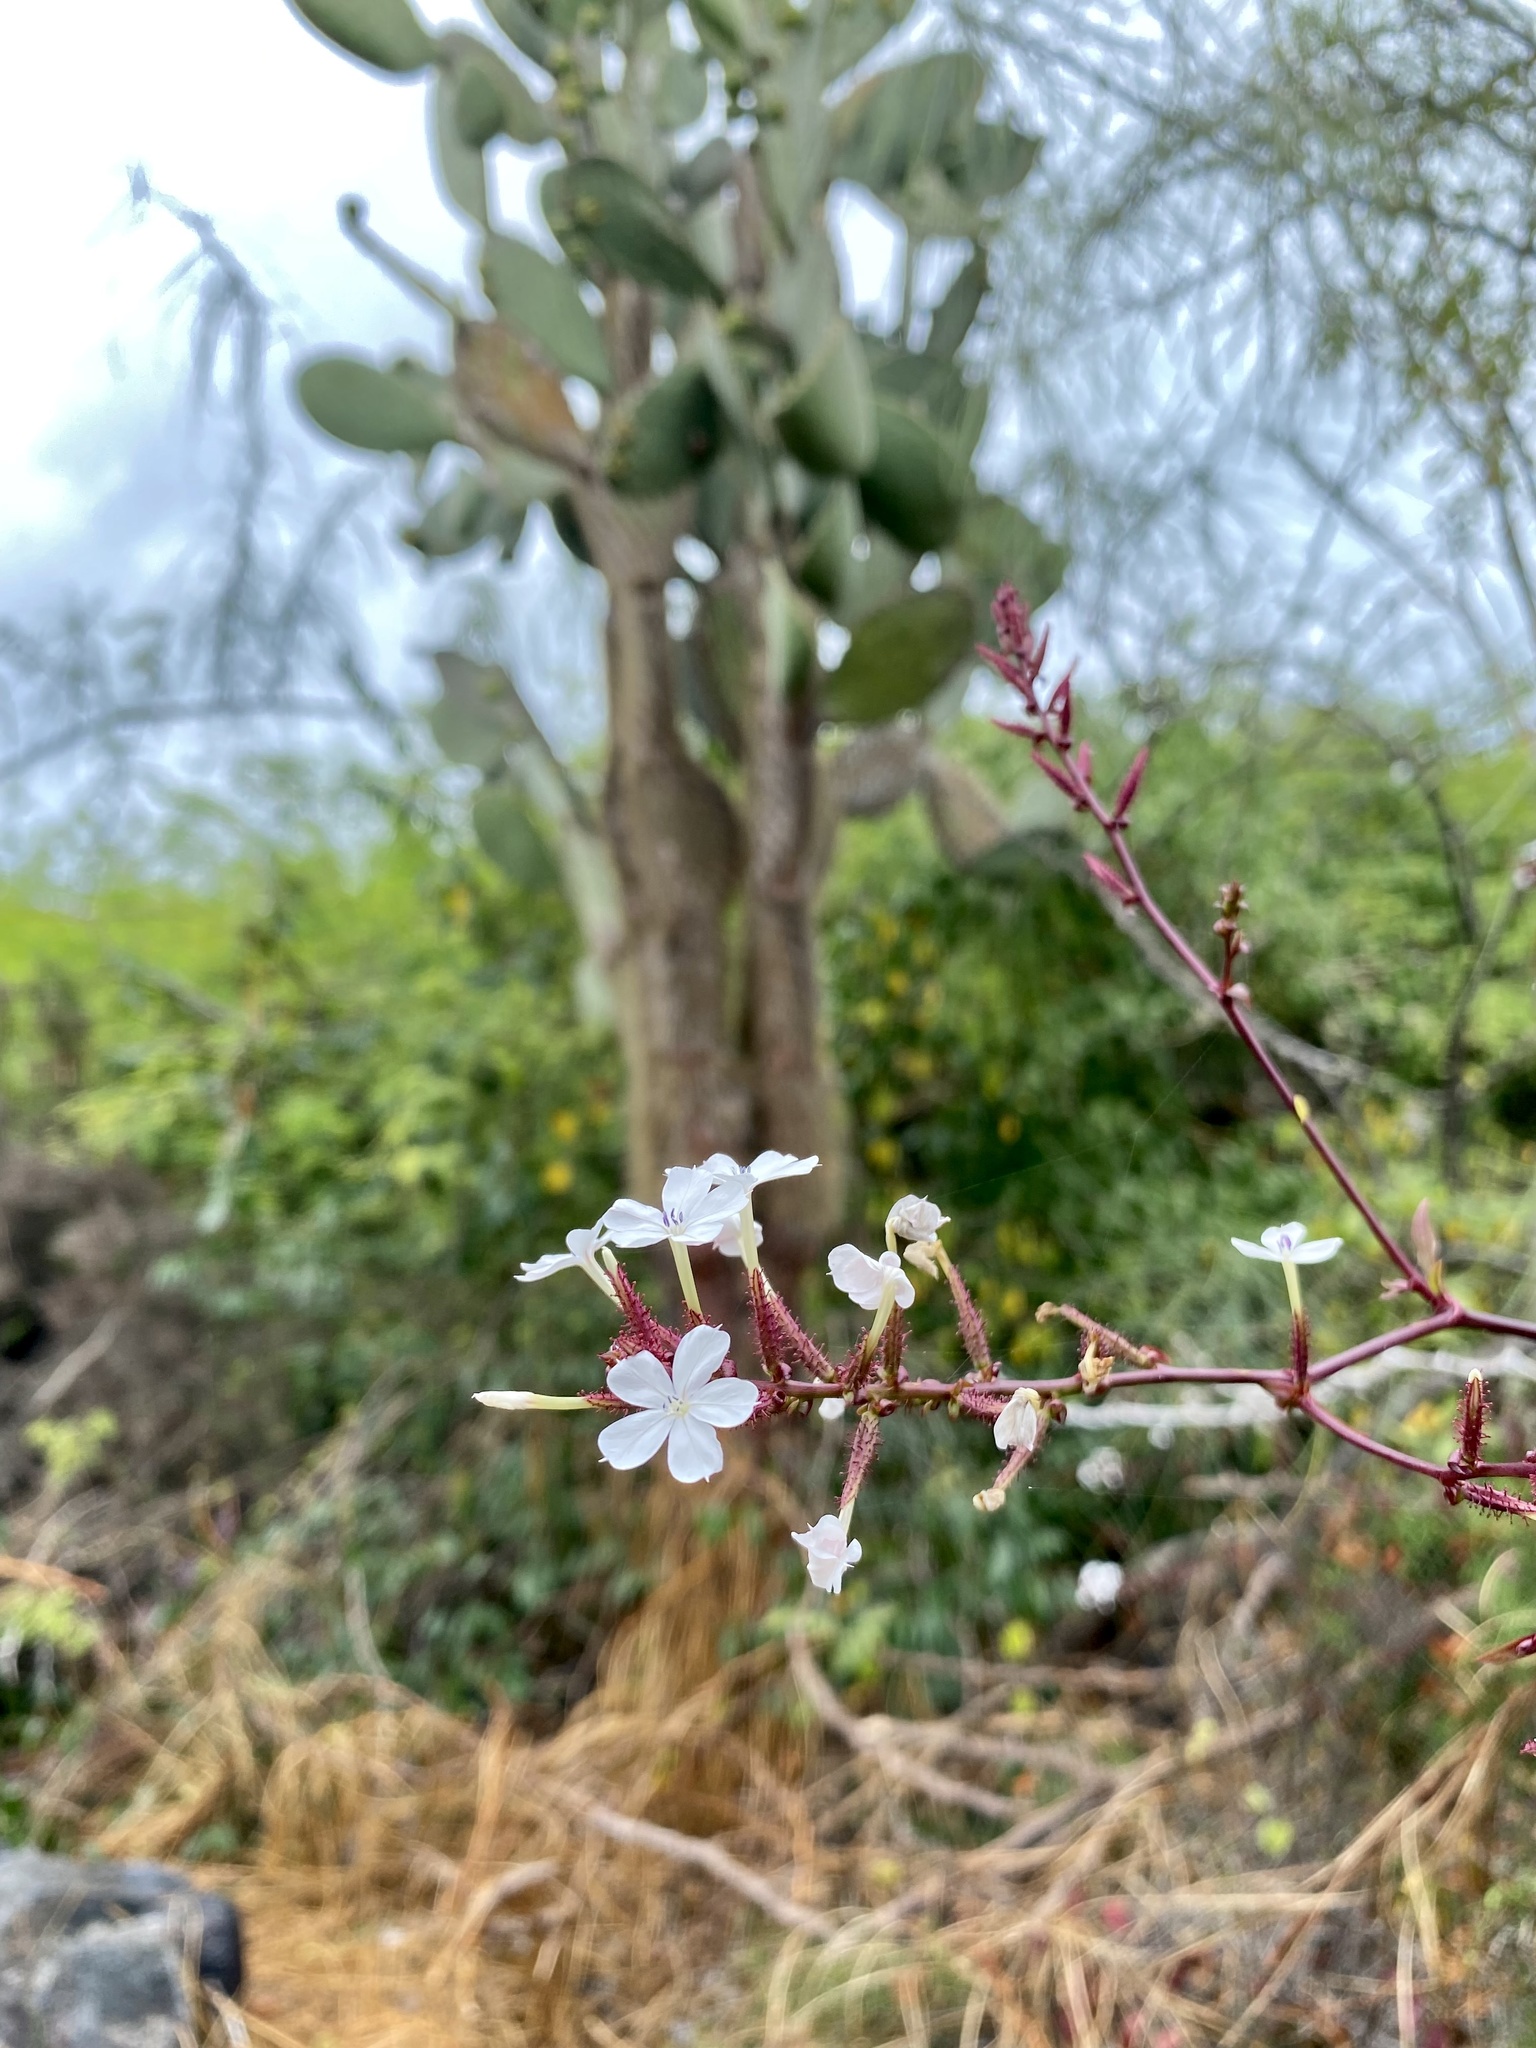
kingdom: Plantae
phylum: Tracheophyta
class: Magnoliopsida
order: Caryophyllales
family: Plumbaginaceae
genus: Plumbago
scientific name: Plumbago zeylanica
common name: Doctorbush
